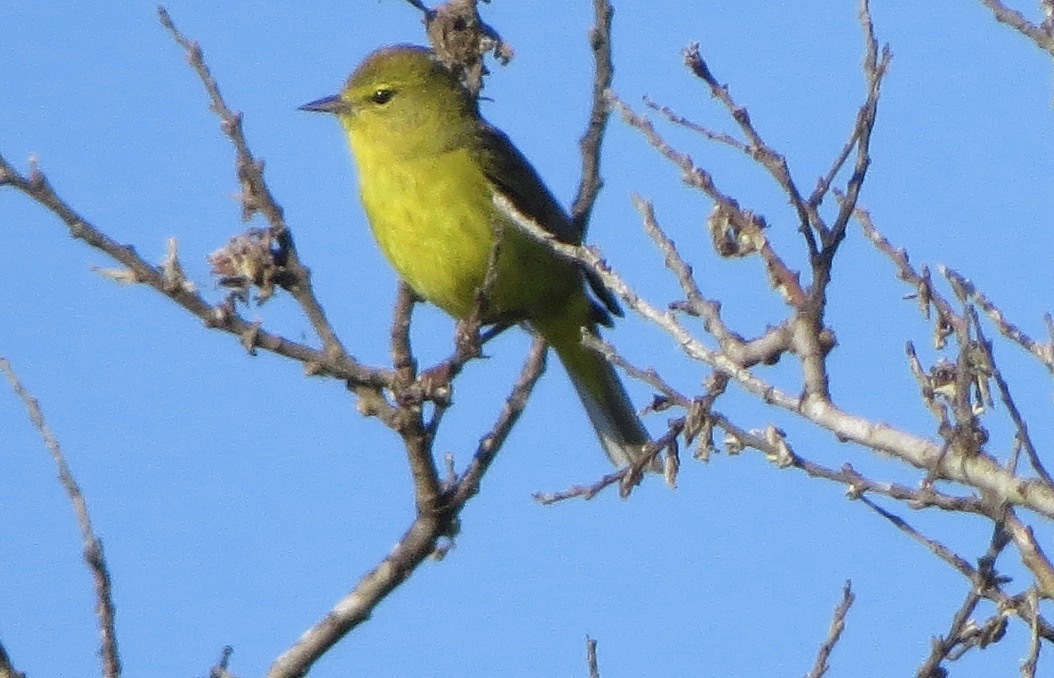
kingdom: Animalia
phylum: Chordata
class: Aves
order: Passeriformes
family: Parulidae
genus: Leiothlypis
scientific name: Leiothlypis celata
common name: Orange-crowned warbler
